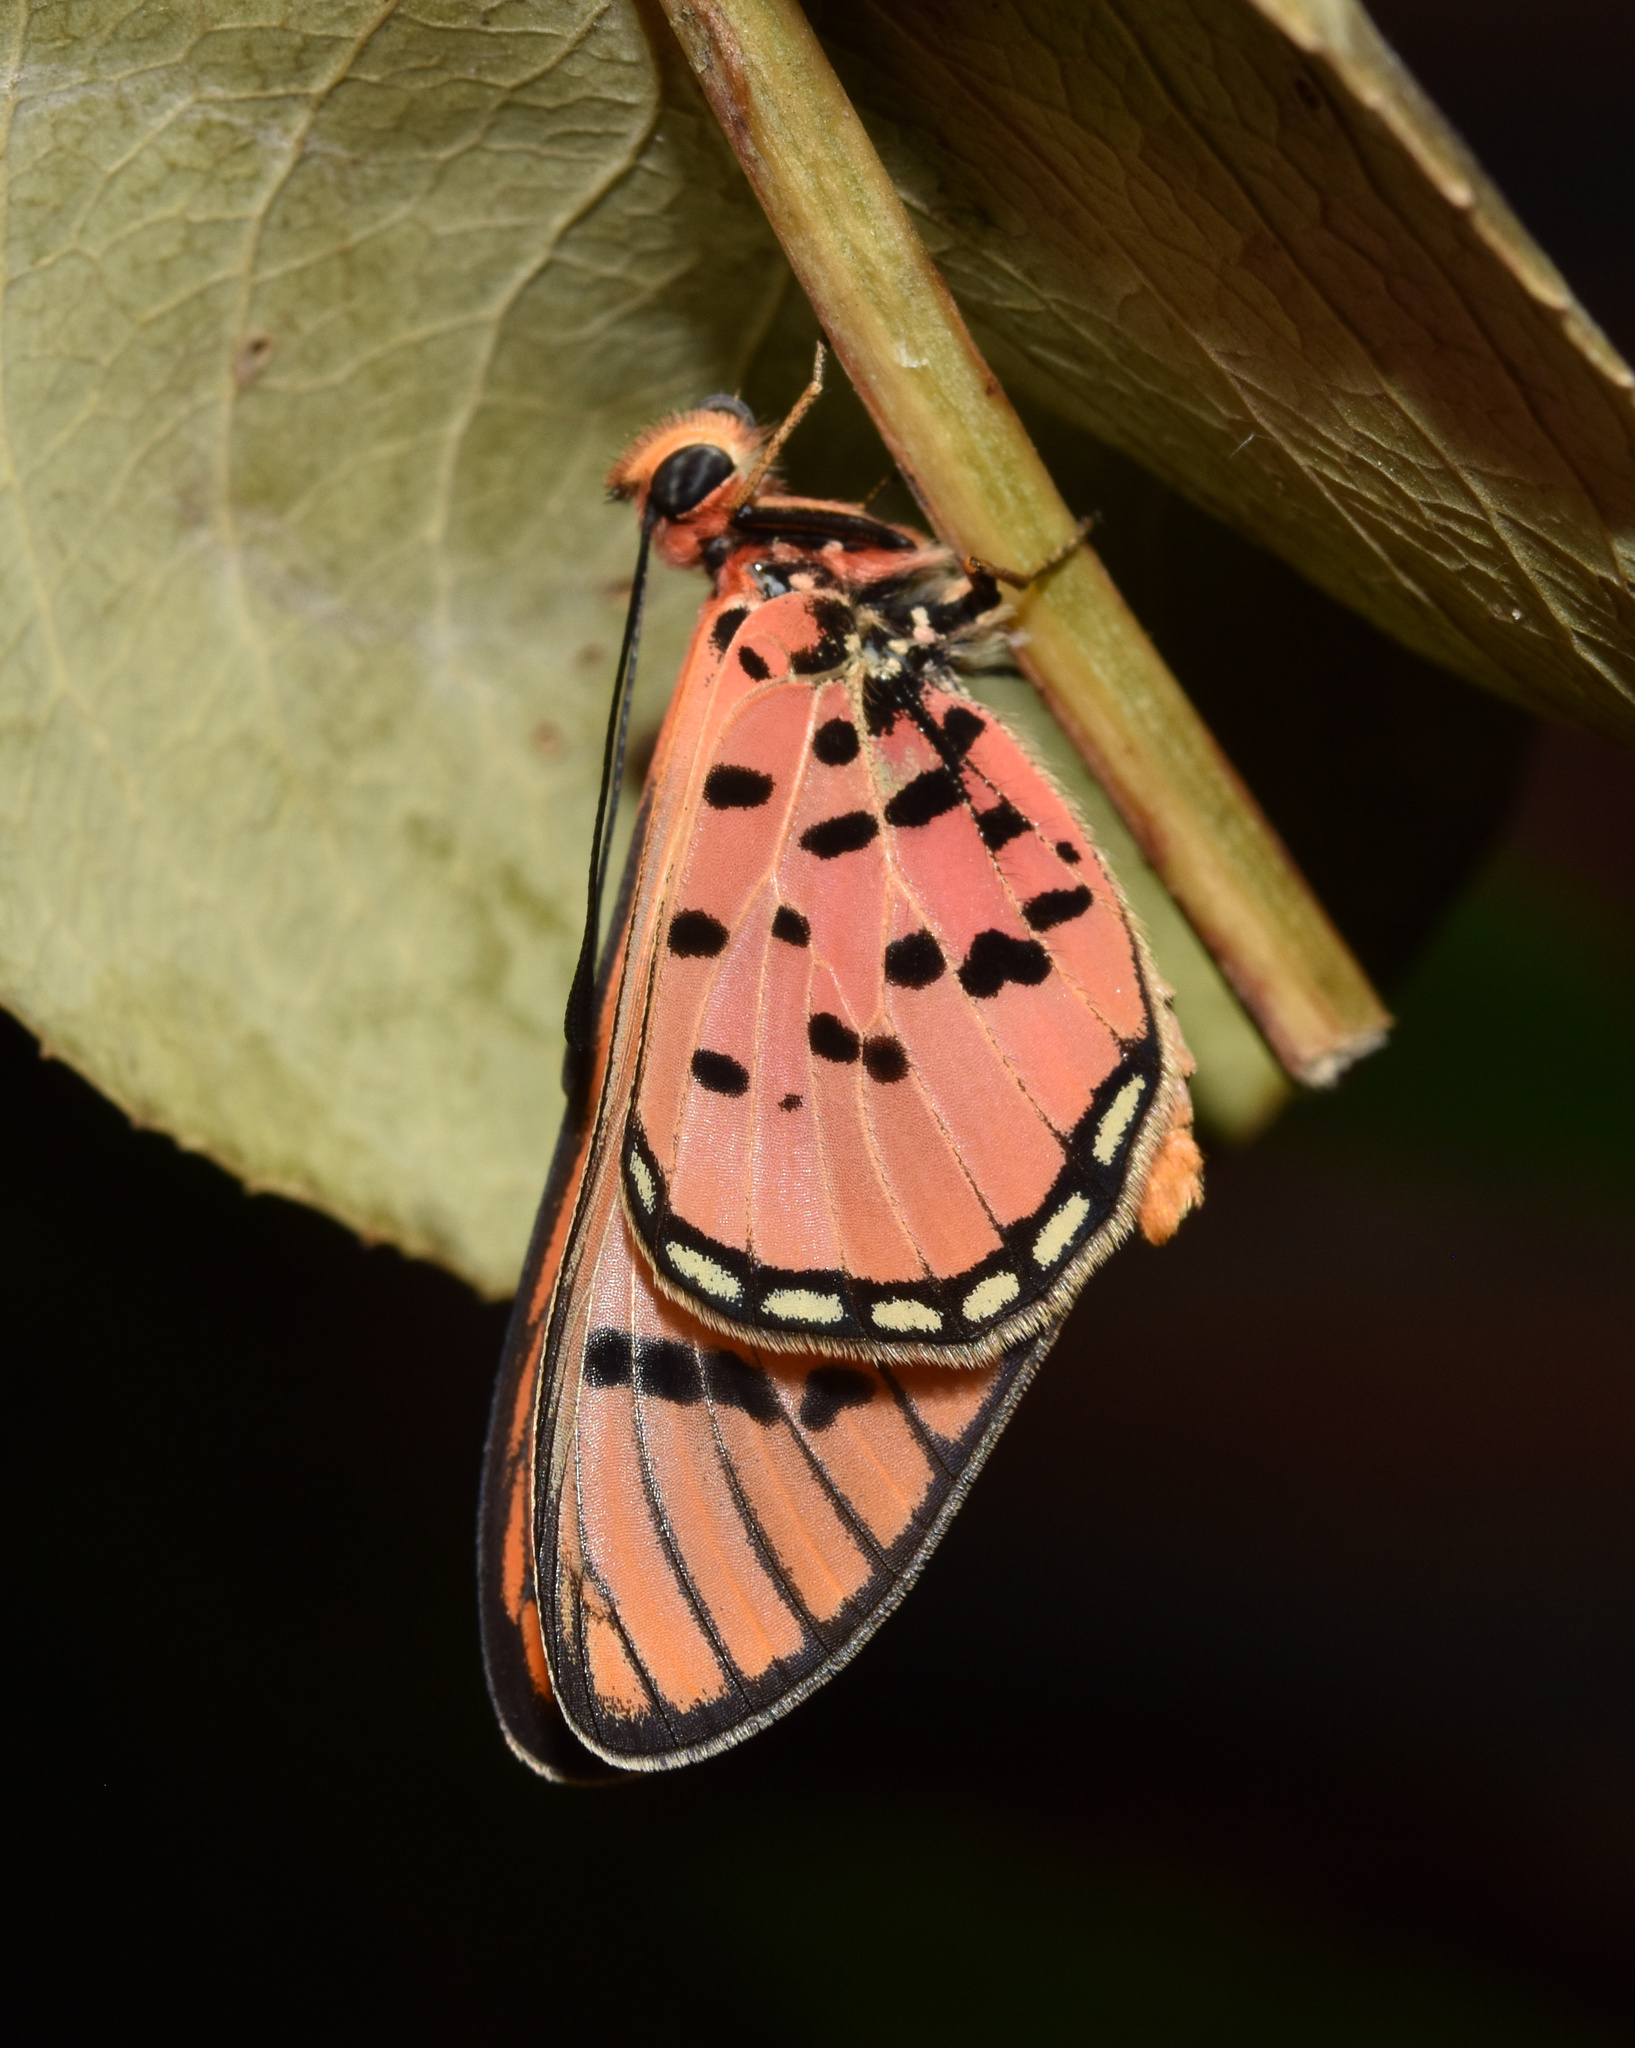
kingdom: Animalia
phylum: Arthropoda
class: Insecta
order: Lepidoptera
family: Nymphalidae
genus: Rubraea
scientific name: Rubraea
